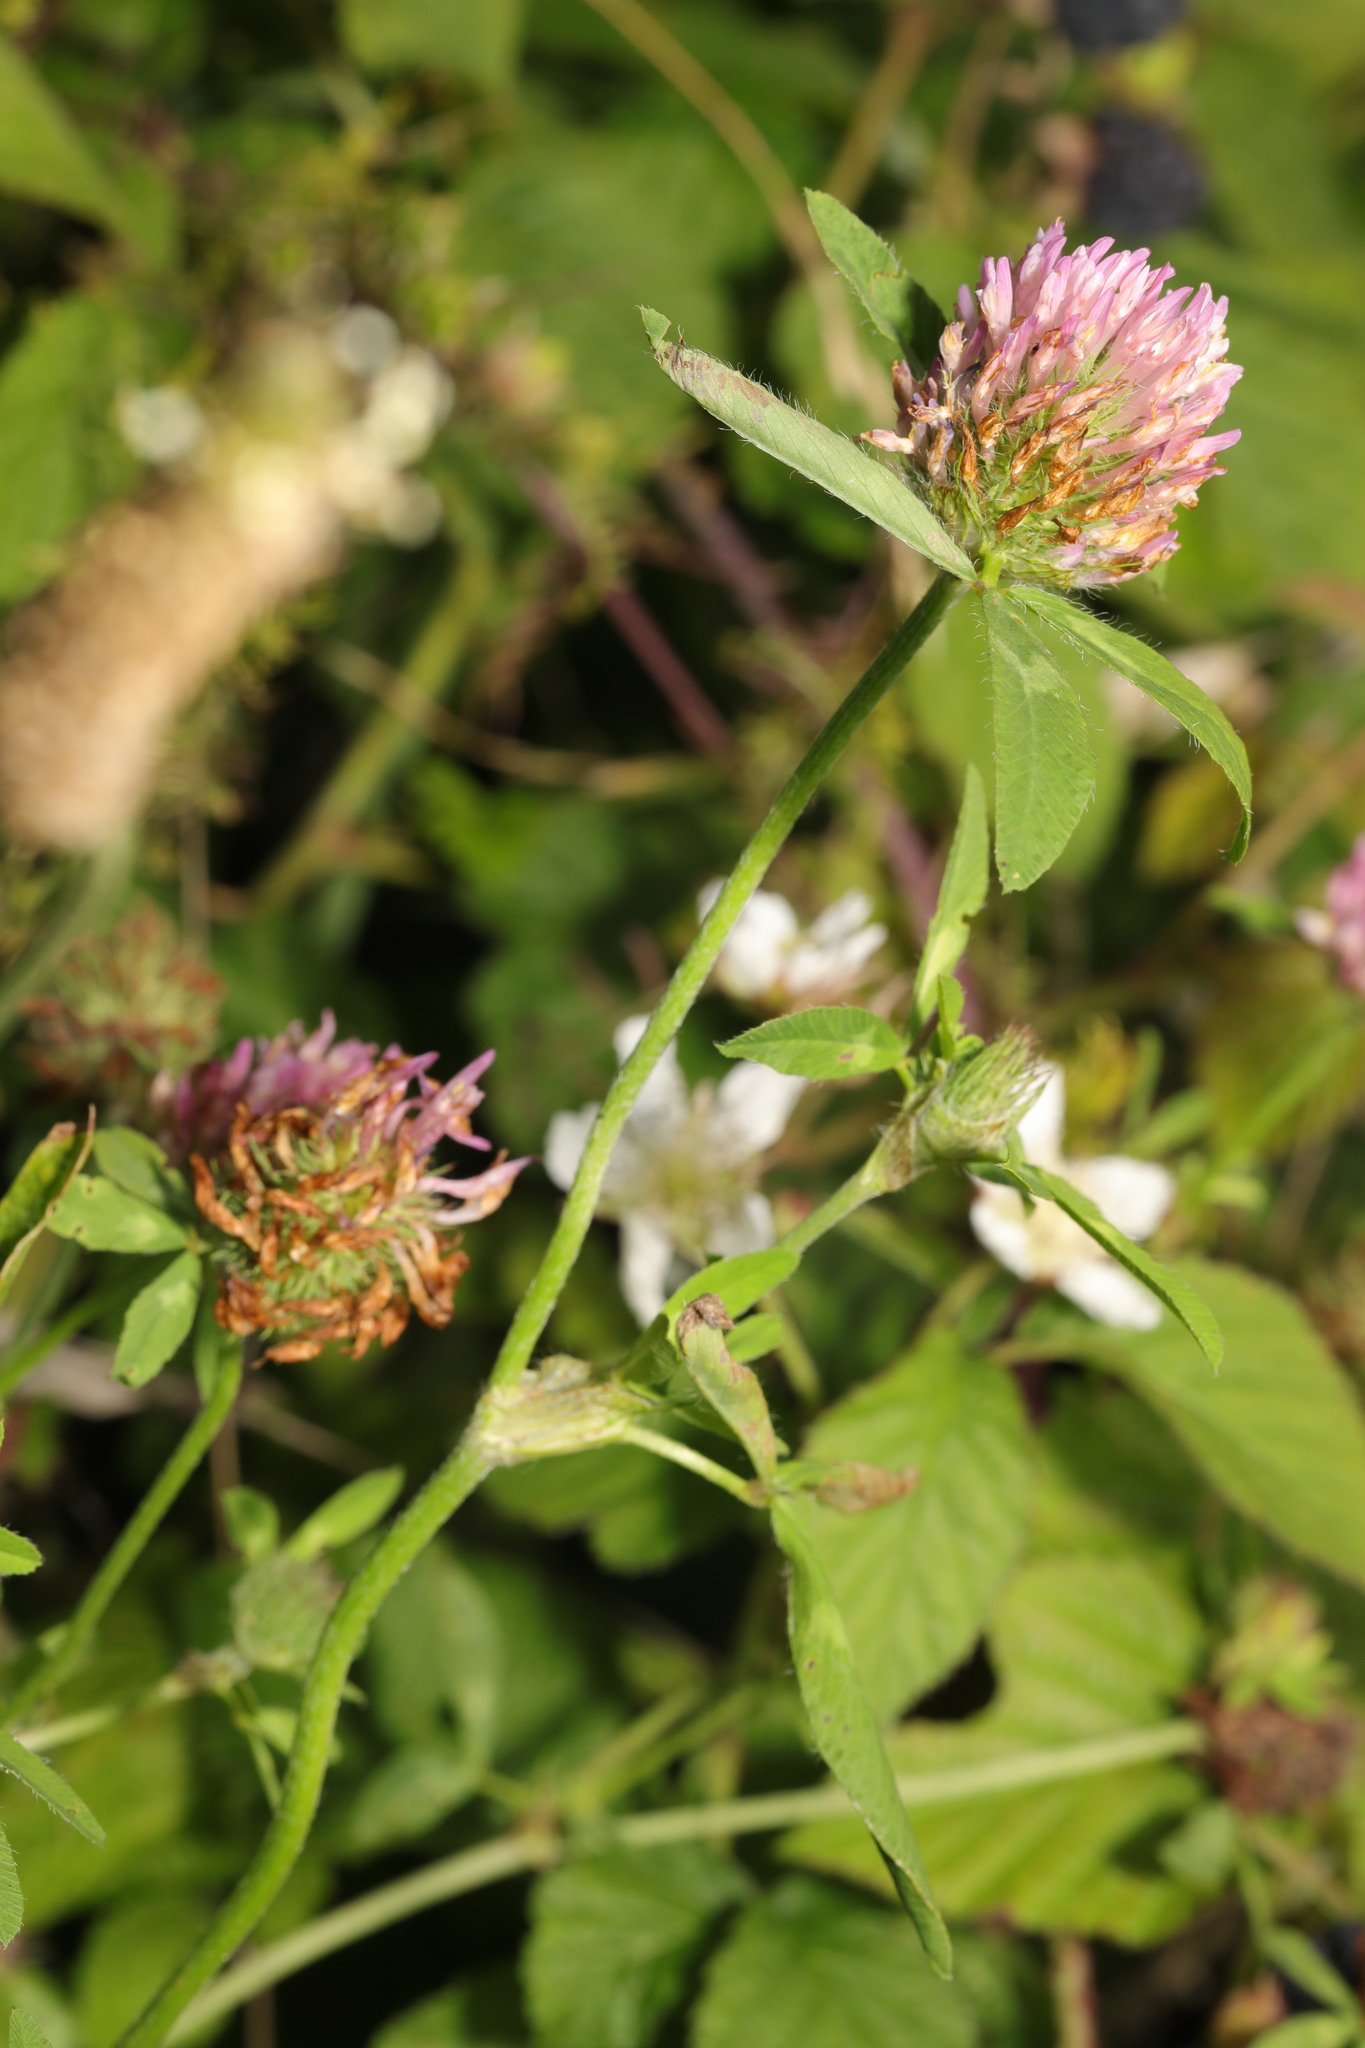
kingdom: Plantae
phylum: Tracheophyta
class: Magnoliopsida
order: Fabales
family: Fabaceae
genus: Trifolium
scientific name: Trifolium pratense
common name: Red clover
